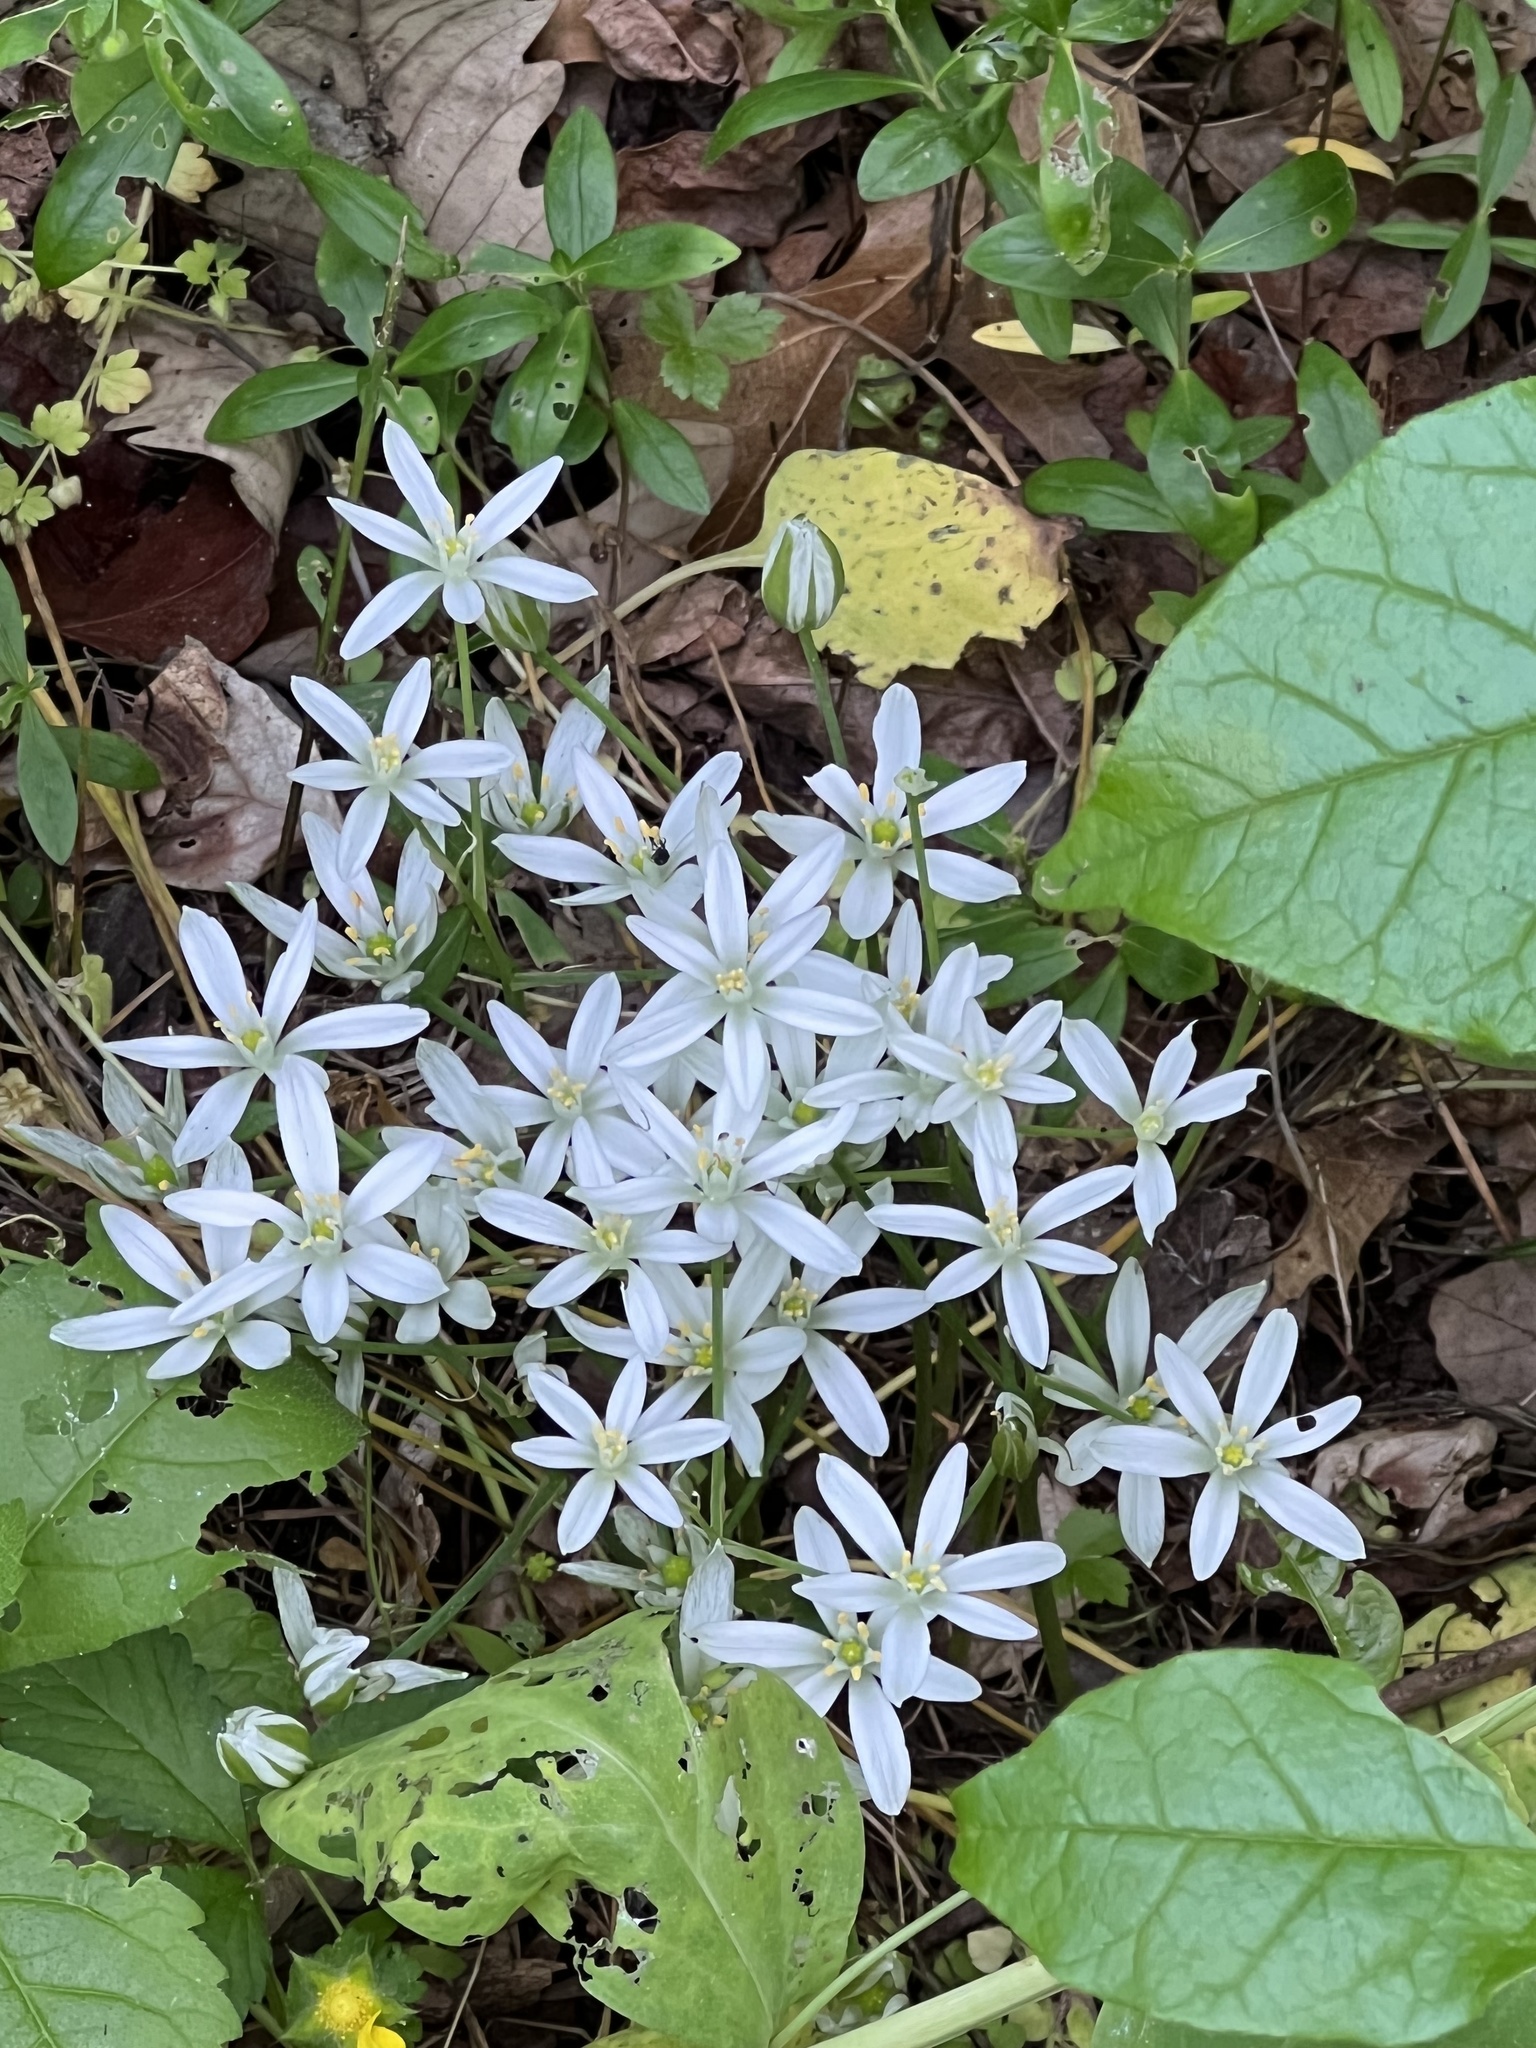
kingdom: Plantae
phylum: Tracheophyta
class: Liliopsida
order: Asparagales
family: Asparagaceae
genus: Ornithogalum
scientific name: Ornithogalum umbellatum
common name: Garden star-of-bethlehem
